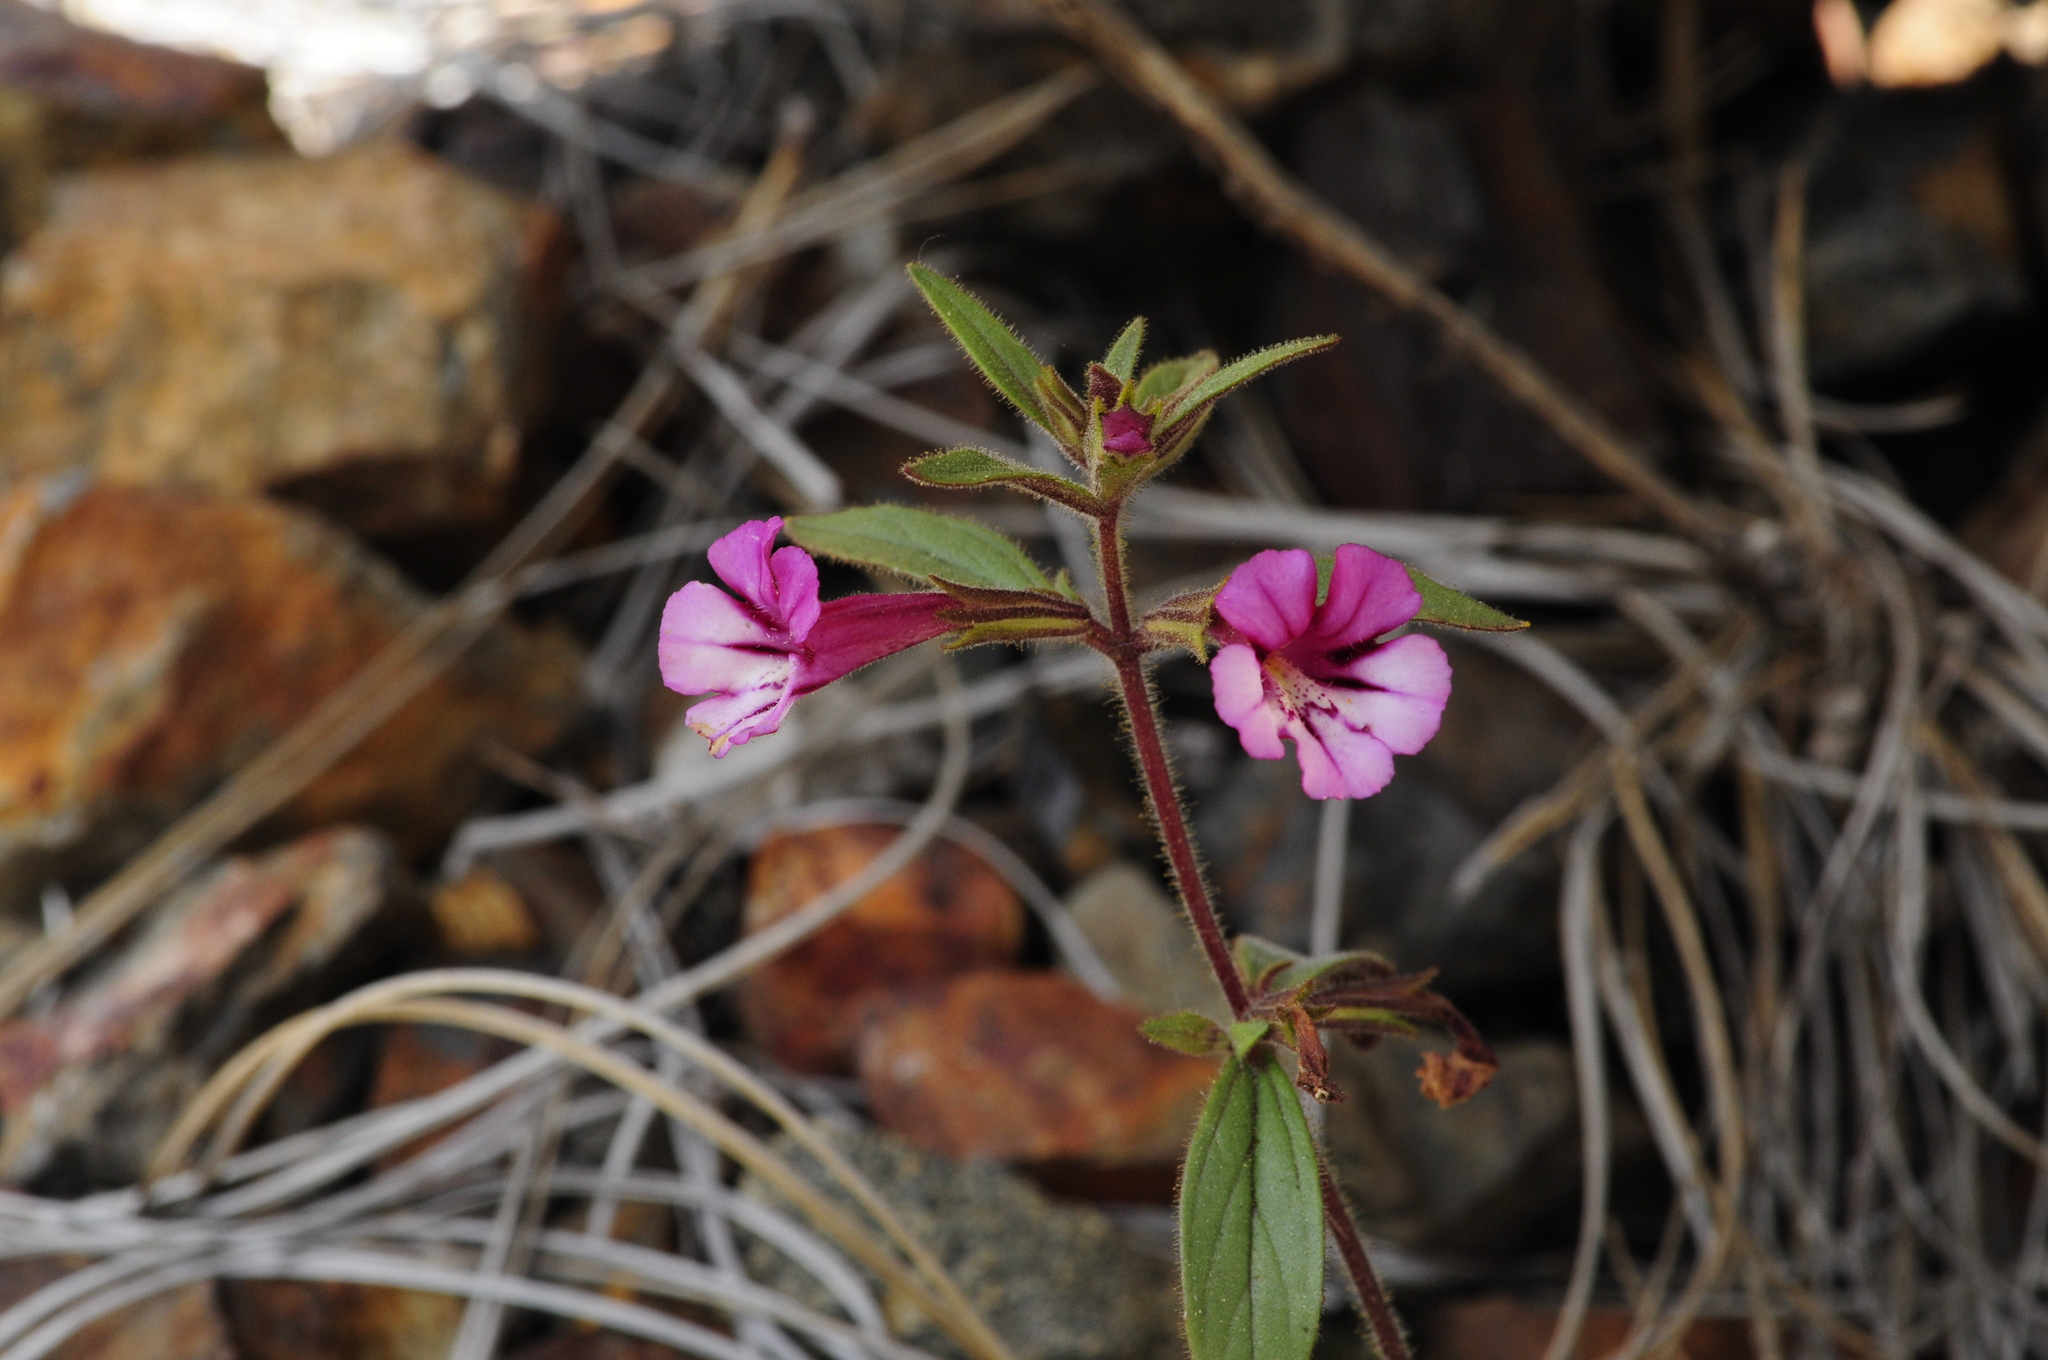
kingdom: Plantae
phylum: Tracheophyta
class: Magnoliopsida
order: Lamiales
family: Phrymaceae
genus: Diplacus
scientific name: Diplacus layneae
